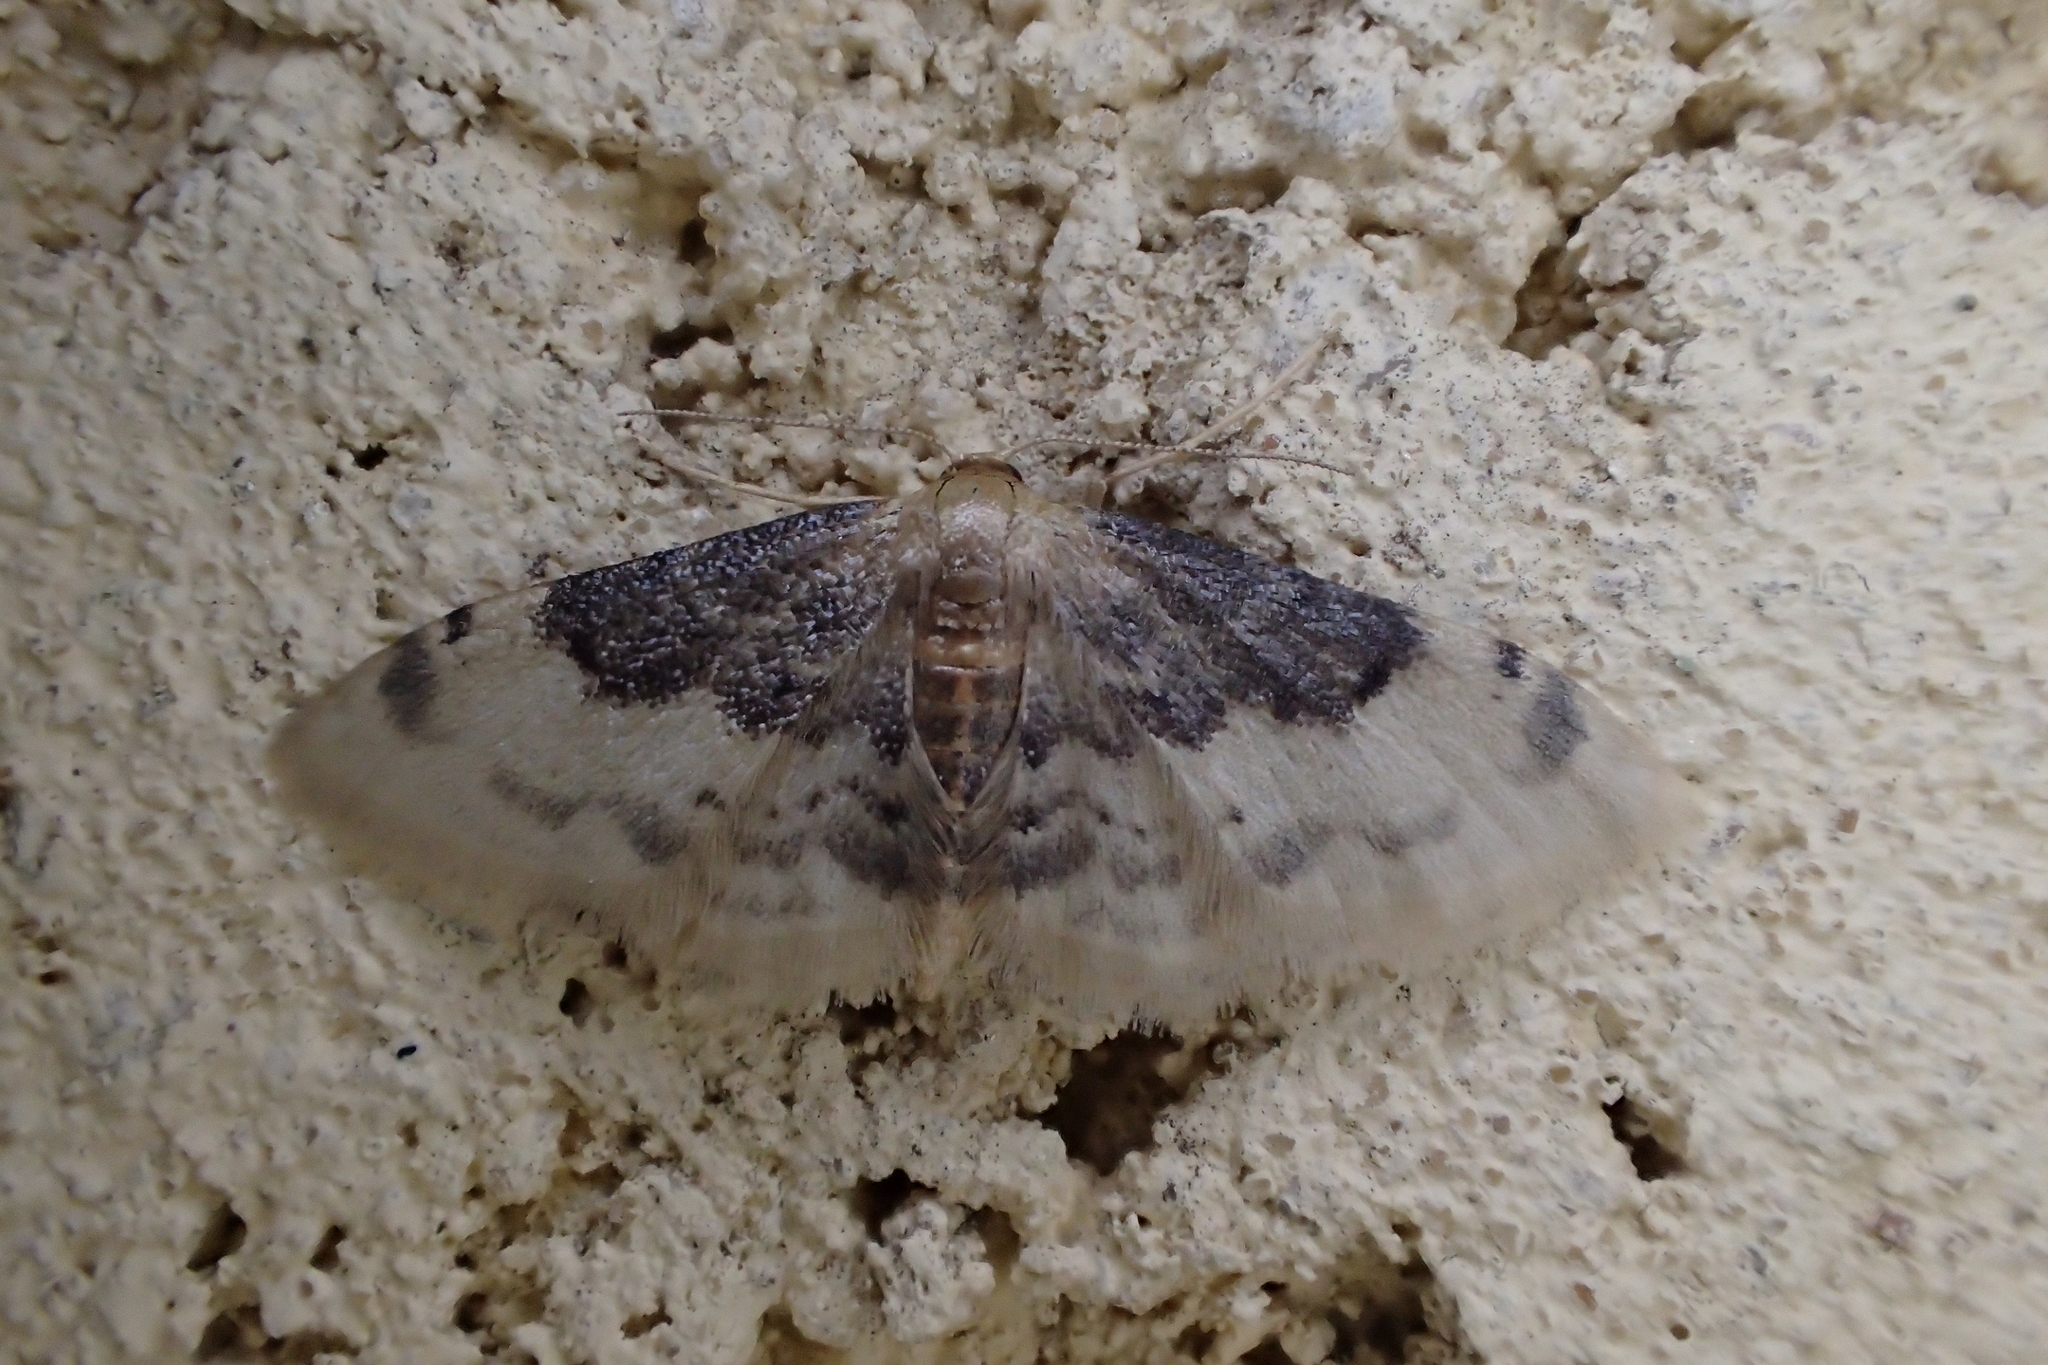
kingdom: Animalia
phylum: Arthropoda
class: Insecta
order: Lepidoptera
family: Geometridae
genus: Idaea
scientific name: Idaea filicata
